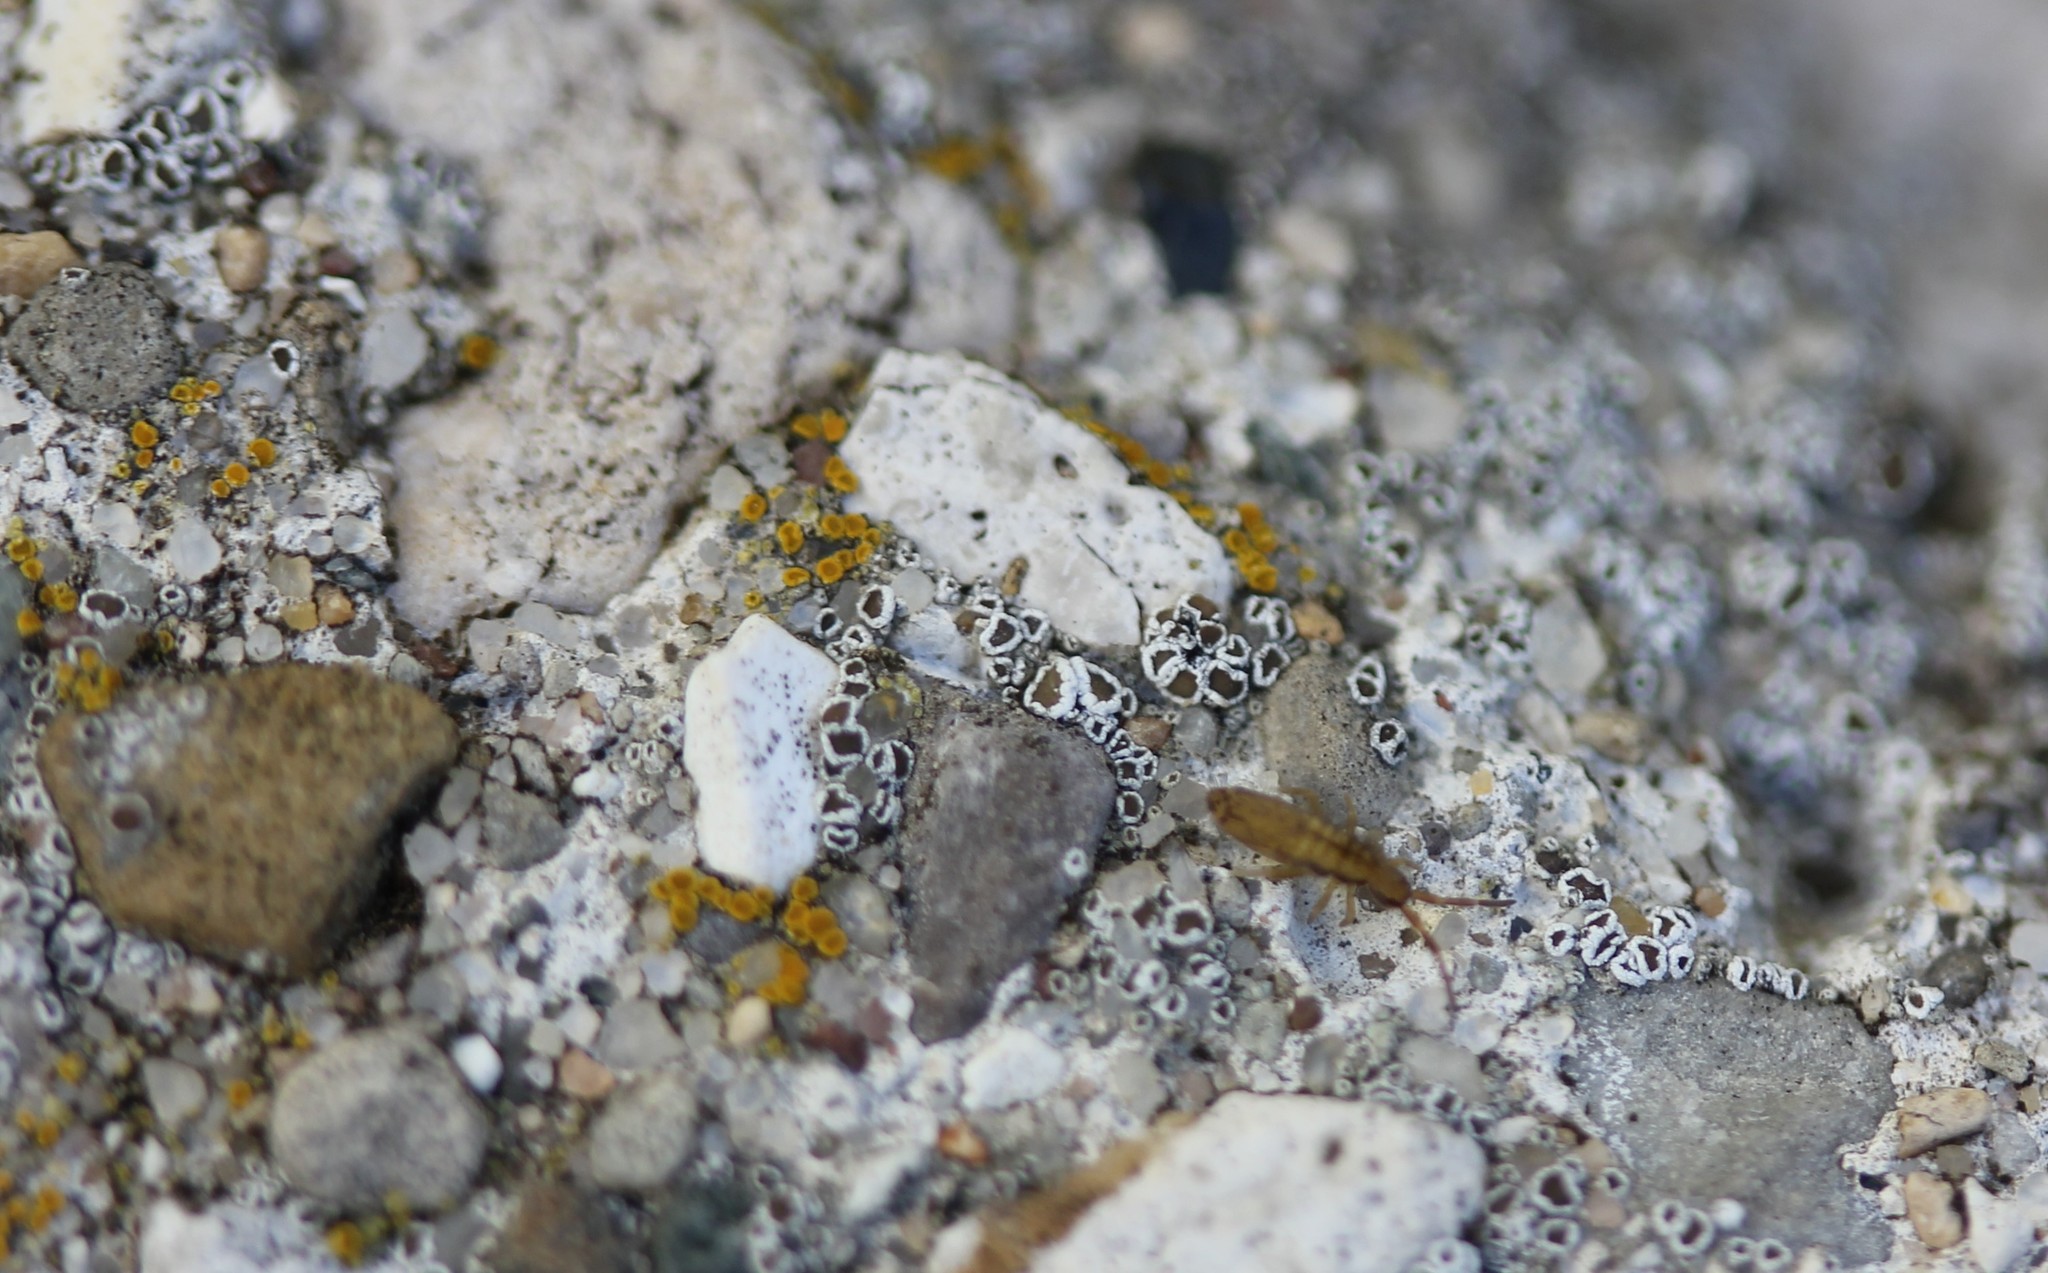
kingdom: Fungi
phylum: Ascomycota
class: Lecanoromycetes
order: Lecanorales
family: Lecanoraceae
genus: Polyozosia
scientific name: Polyozosia dispersa
